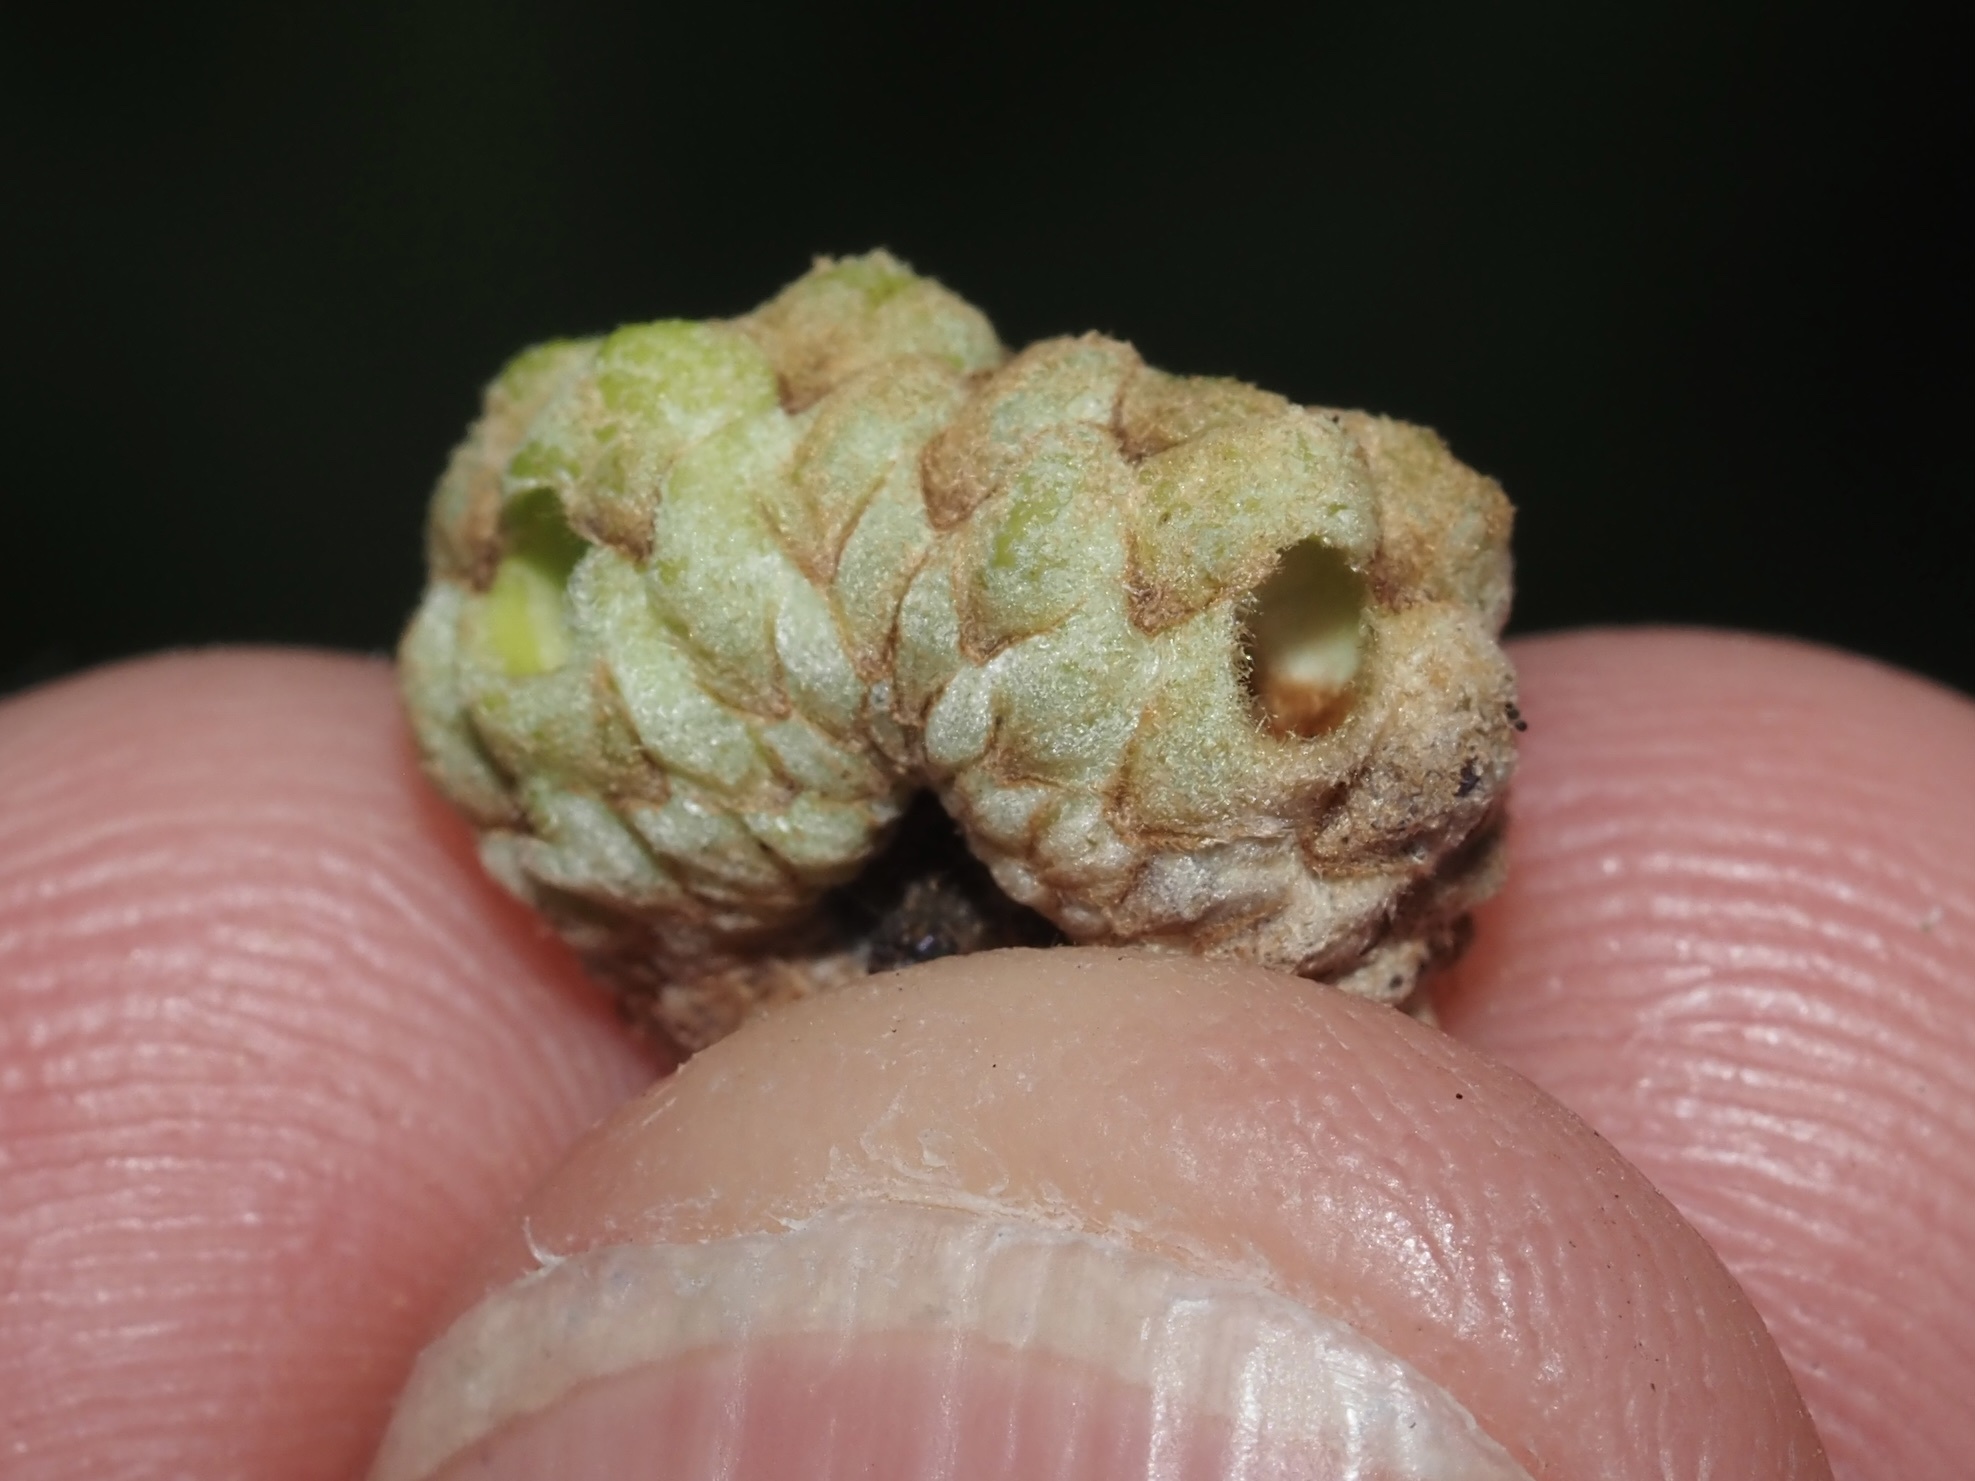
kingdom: Animalia
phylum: Arthropoda
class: Insecta
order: Hymenoptera
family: Cynipidae
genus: Callirhytis
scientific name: Callirhytis glandium
